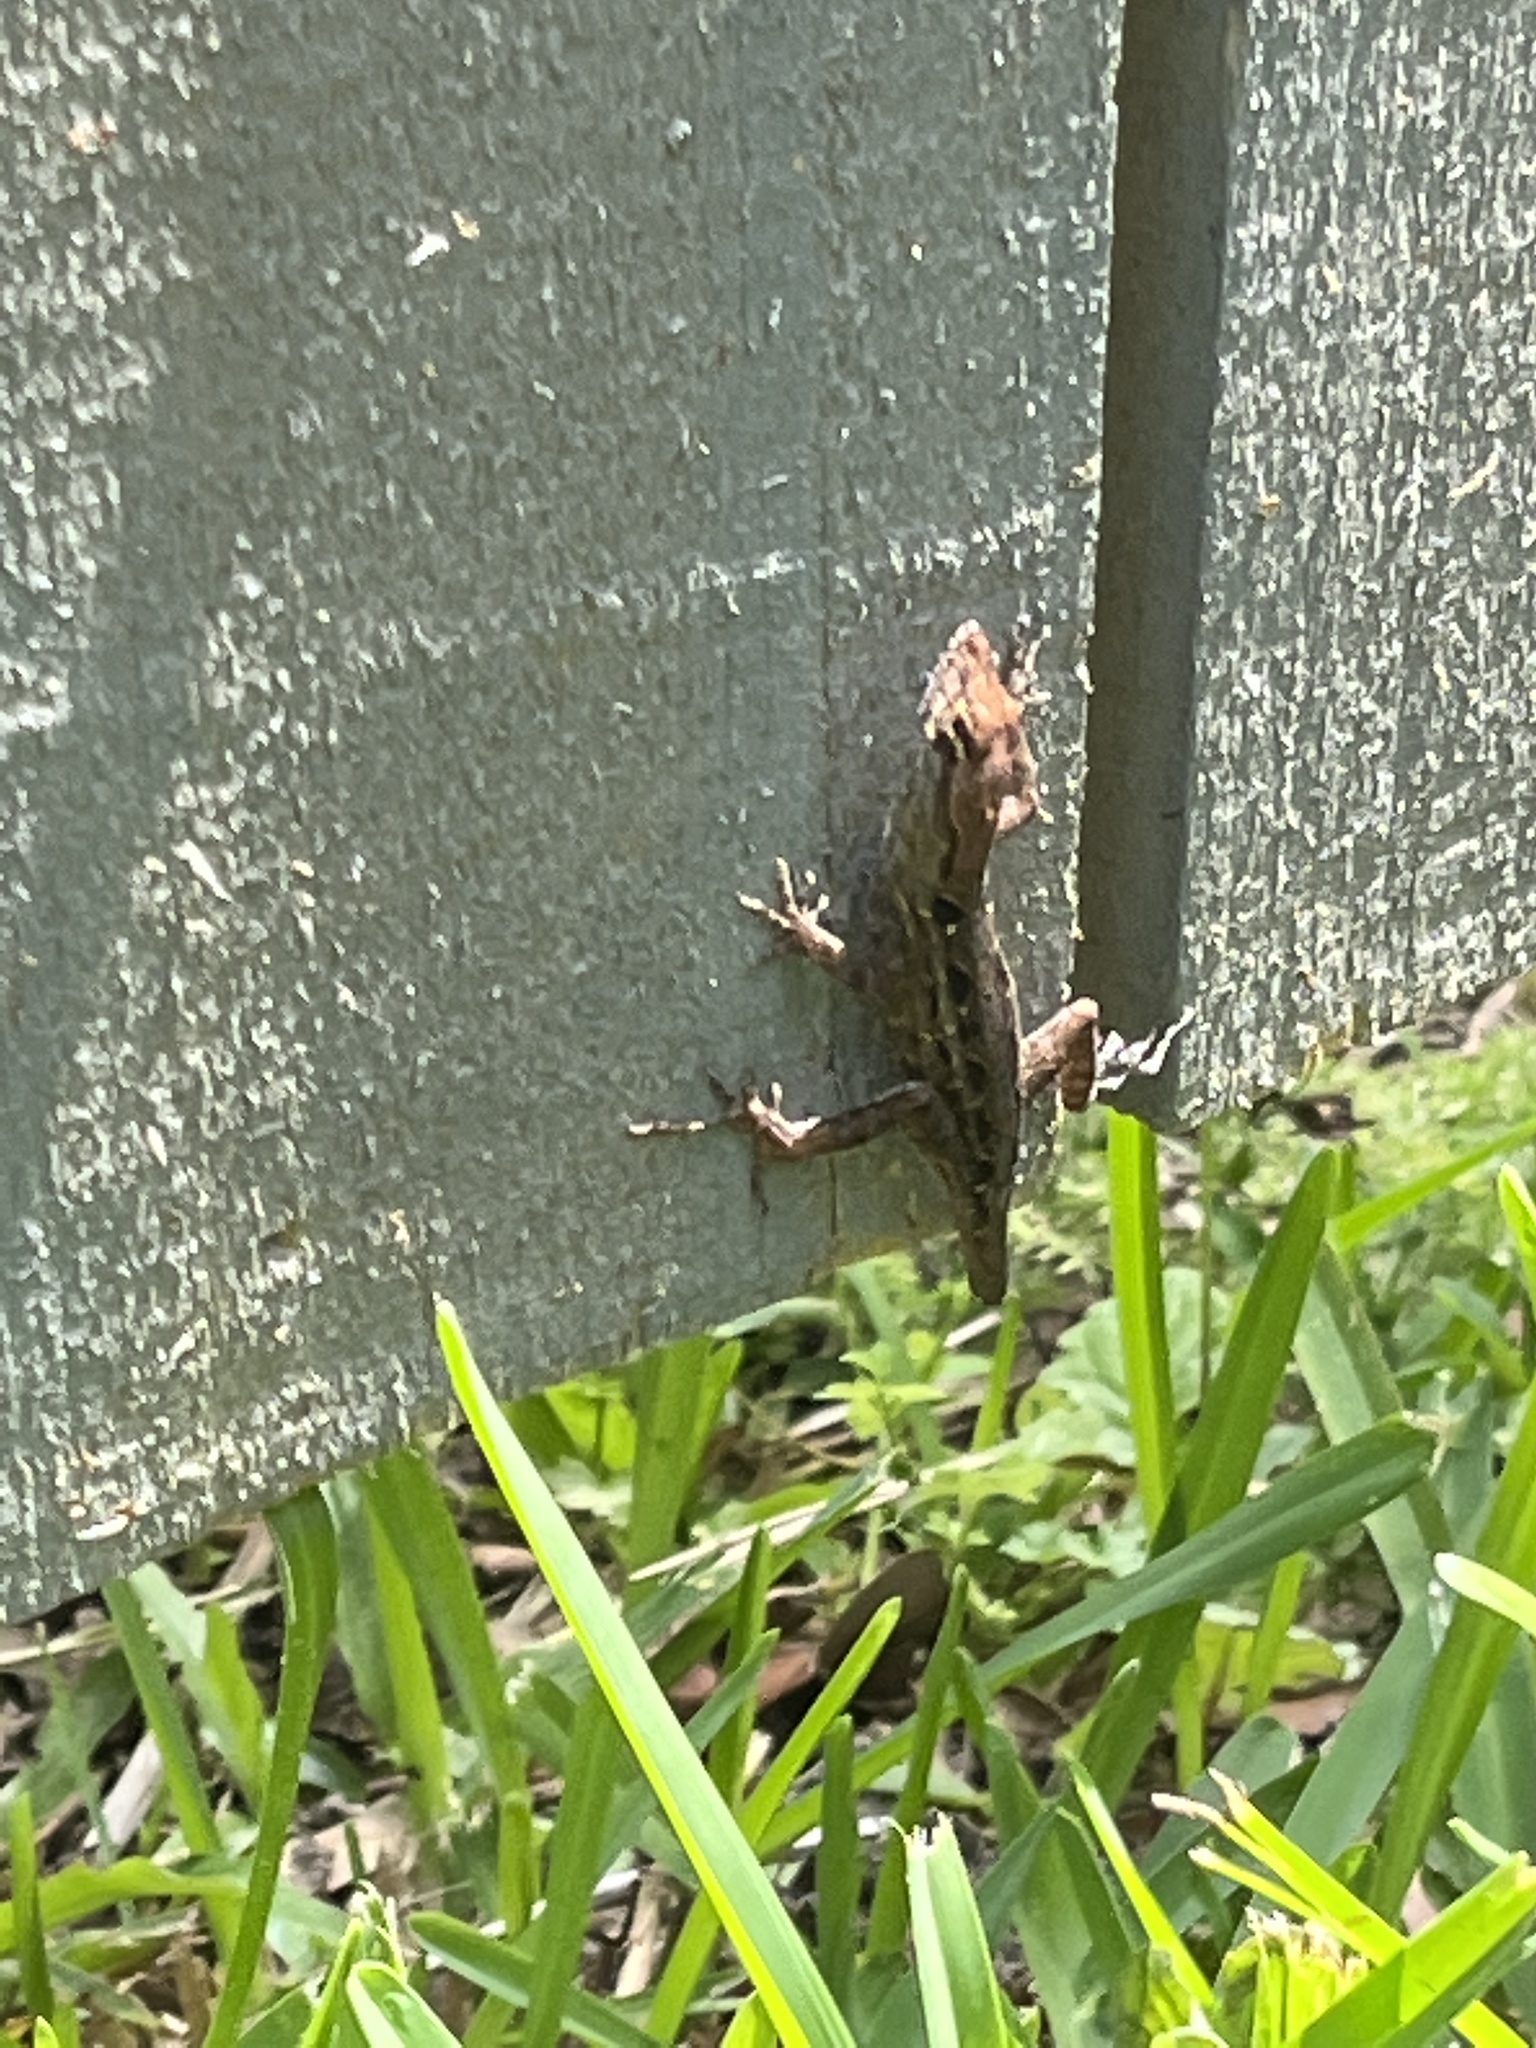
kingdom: Animalia
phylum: Chordata
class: Squamata
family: Dactyloidae
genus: Anolis
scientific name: Anolis sagrei
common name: Brown anole
